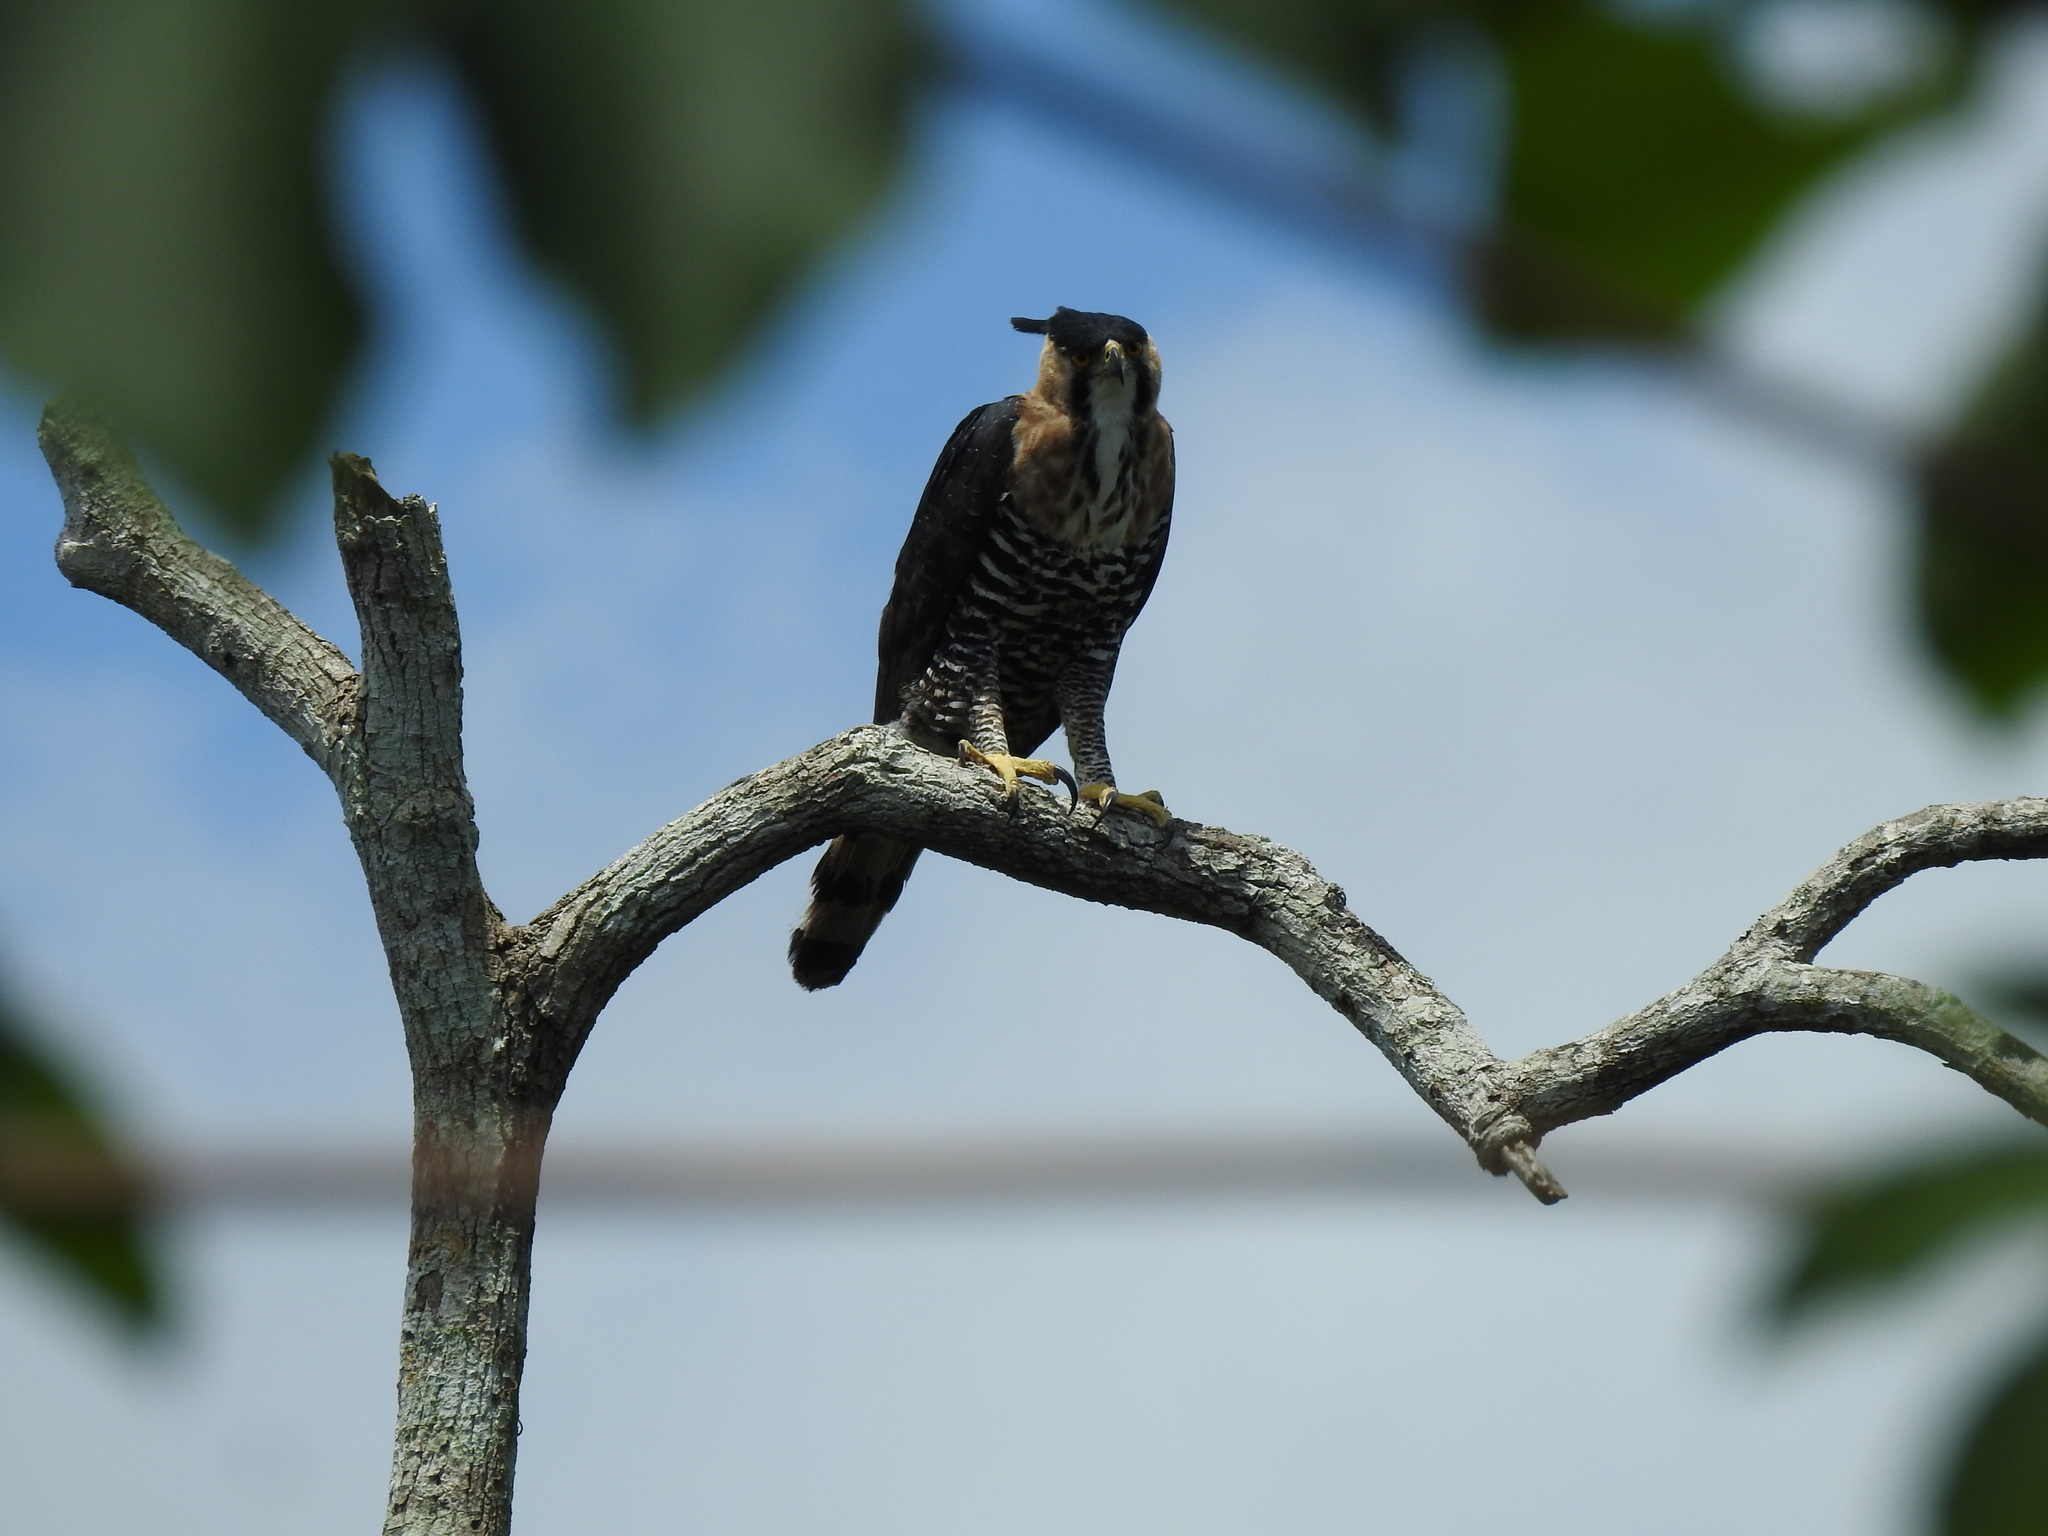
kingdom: Animalia
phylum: Chordata
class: Aves
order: Accipitriformes
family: Accipitridae
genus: Spizaetus
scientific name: Spizaetus ornatus
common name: Ornate hawk-eagle
